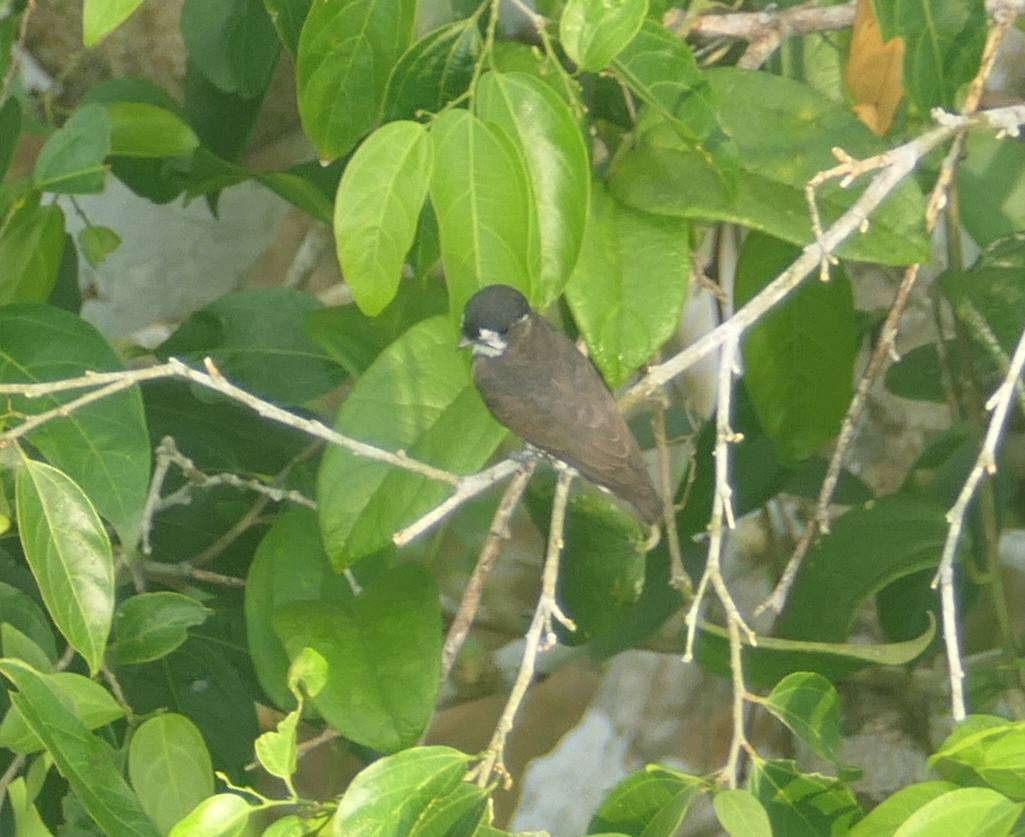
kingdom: Animalia
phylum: Chordata
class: Aves
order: Passeriformes
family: Cotingidae
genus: Iodopleura
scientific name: Iodopleura isabellae
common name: White-browed purpletuft
